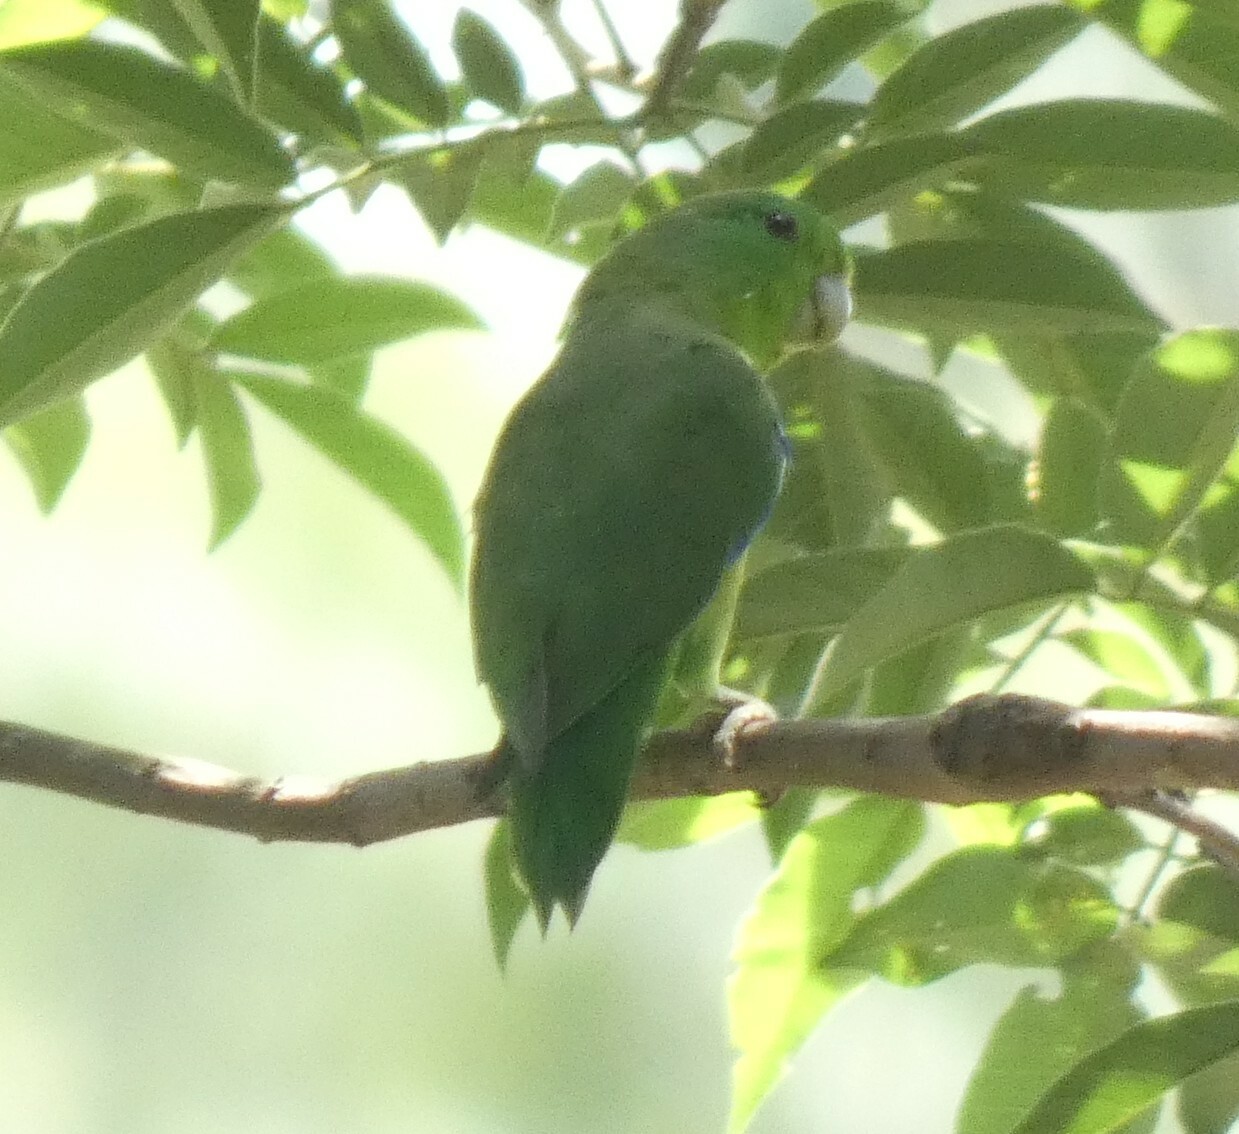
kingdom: Animalia
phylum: Chordata
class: Aves
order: Psittaciformes
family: Psittacidae
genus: Forpus
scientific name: Forpus xanthopterygius
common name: Blue-winged parrotlet
